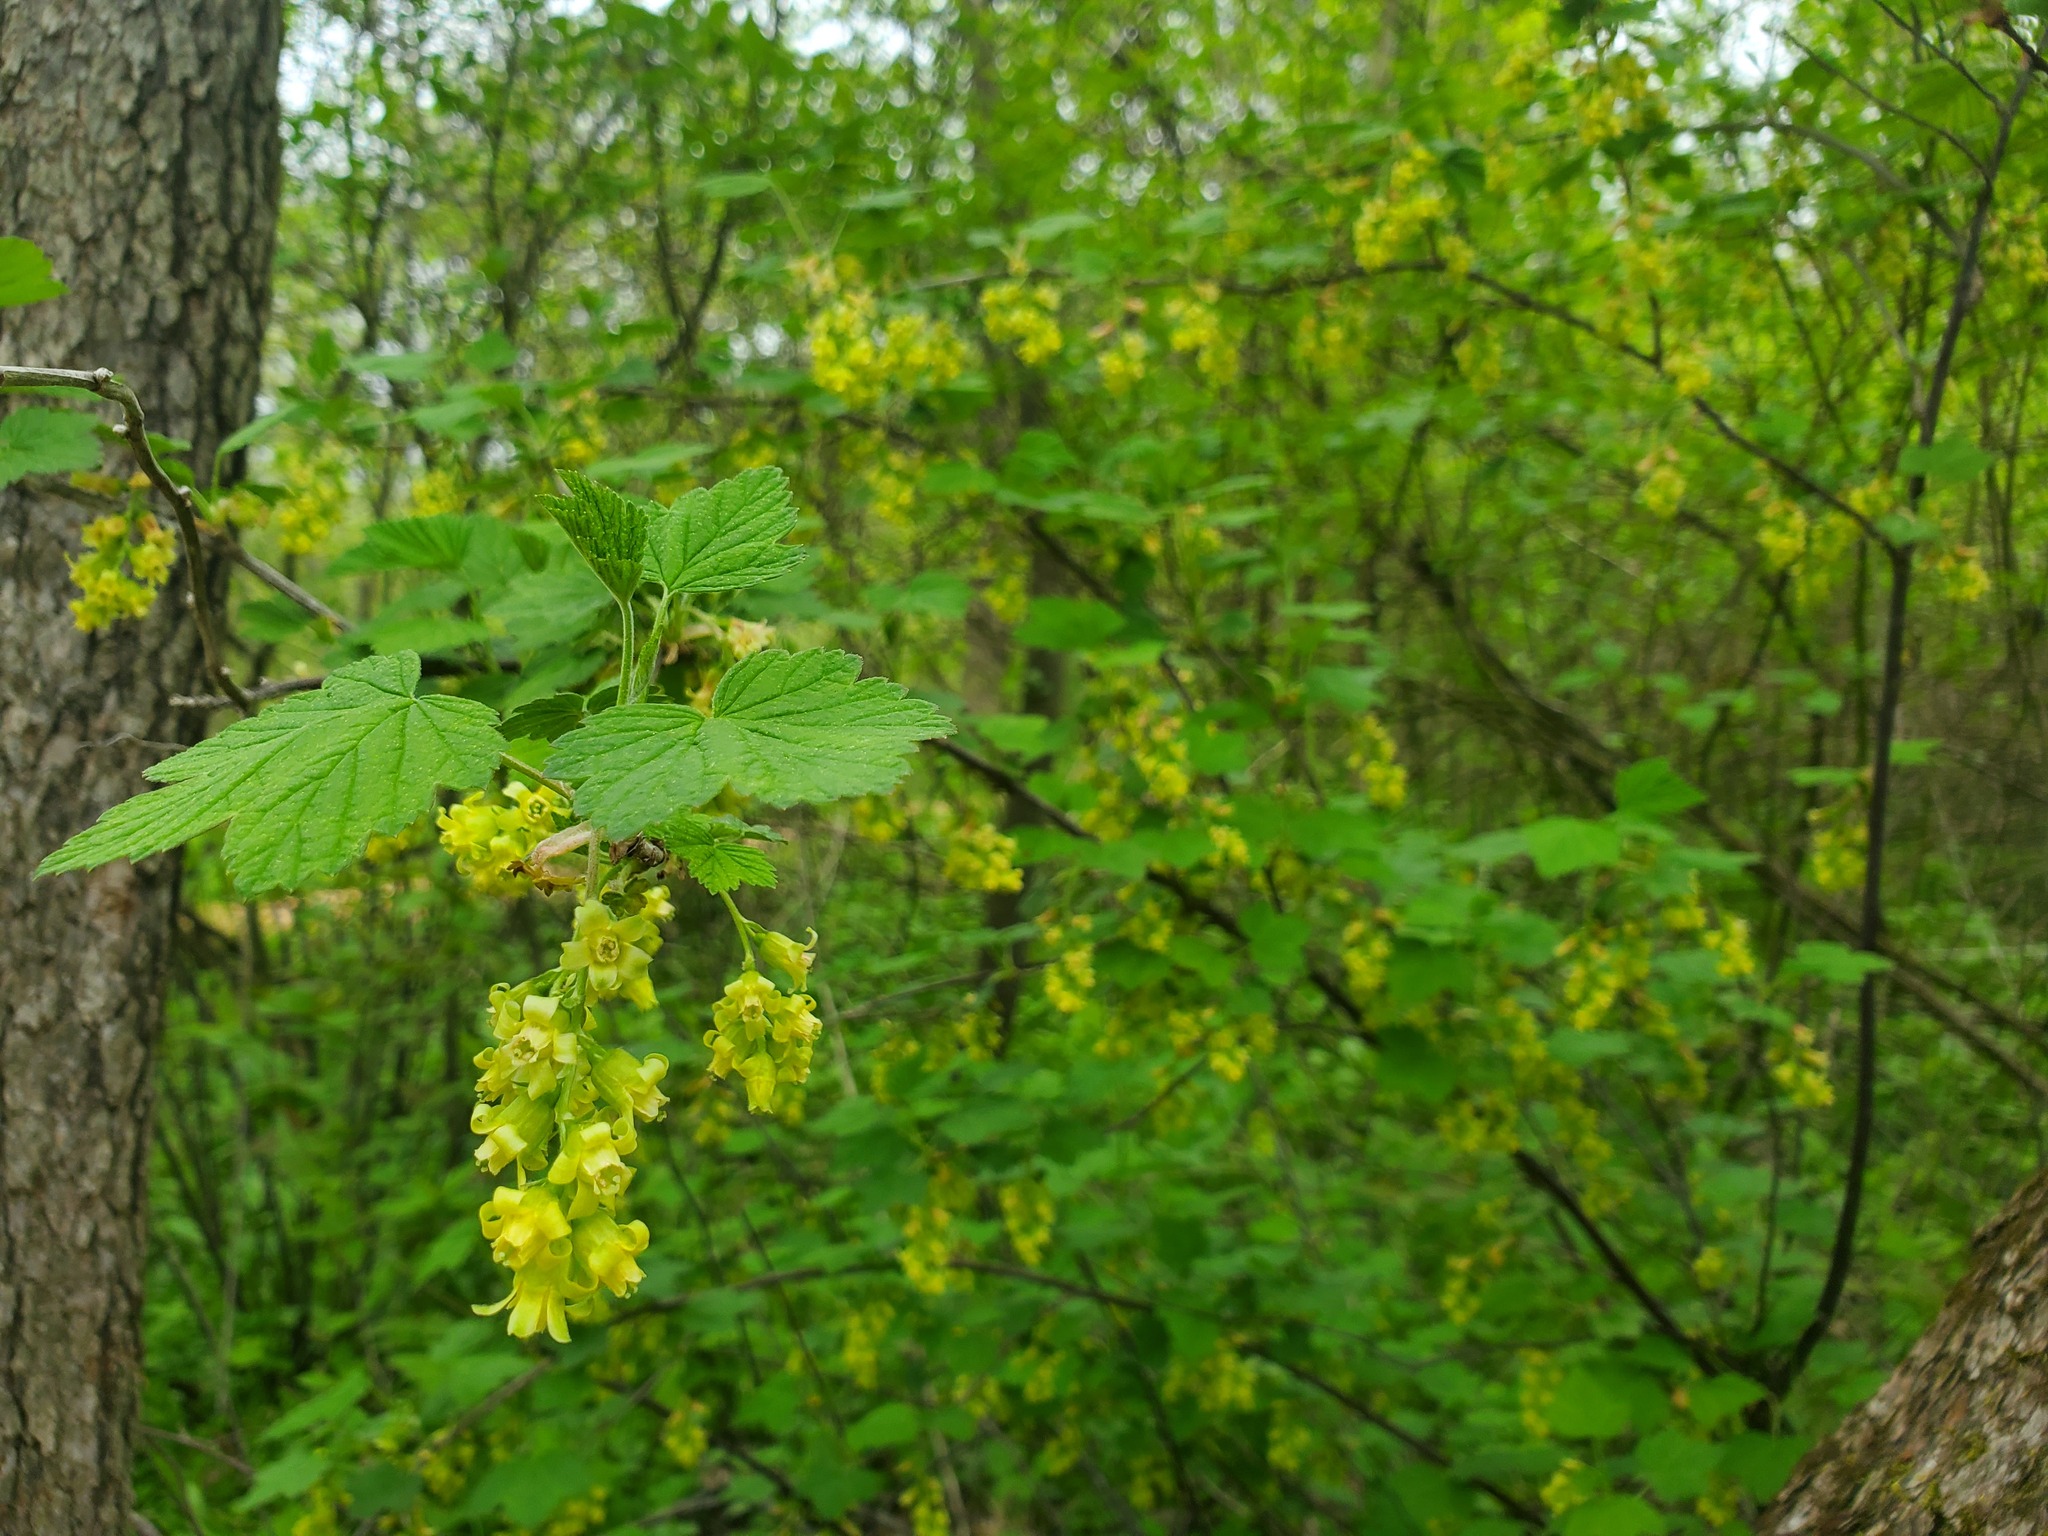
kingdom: Plantae
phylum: Tracheophyta
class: Magnoliopsida
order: Saxifragales
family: Grossulariaceae
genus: Ribes
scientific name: Ribes americanum
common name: American black currant
